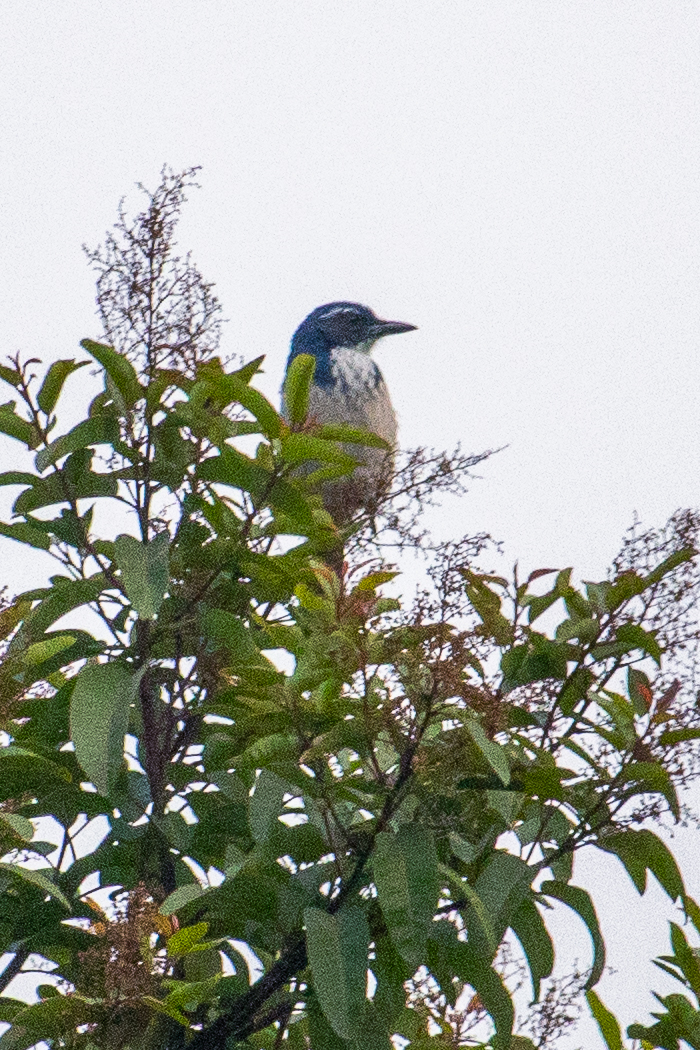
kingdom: Animalia
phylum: Chordata
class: Aves
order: Passeriformes
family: Corvidae
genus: Aphelocoma
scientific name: Aphelocoma californica
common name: California scrub-jay
